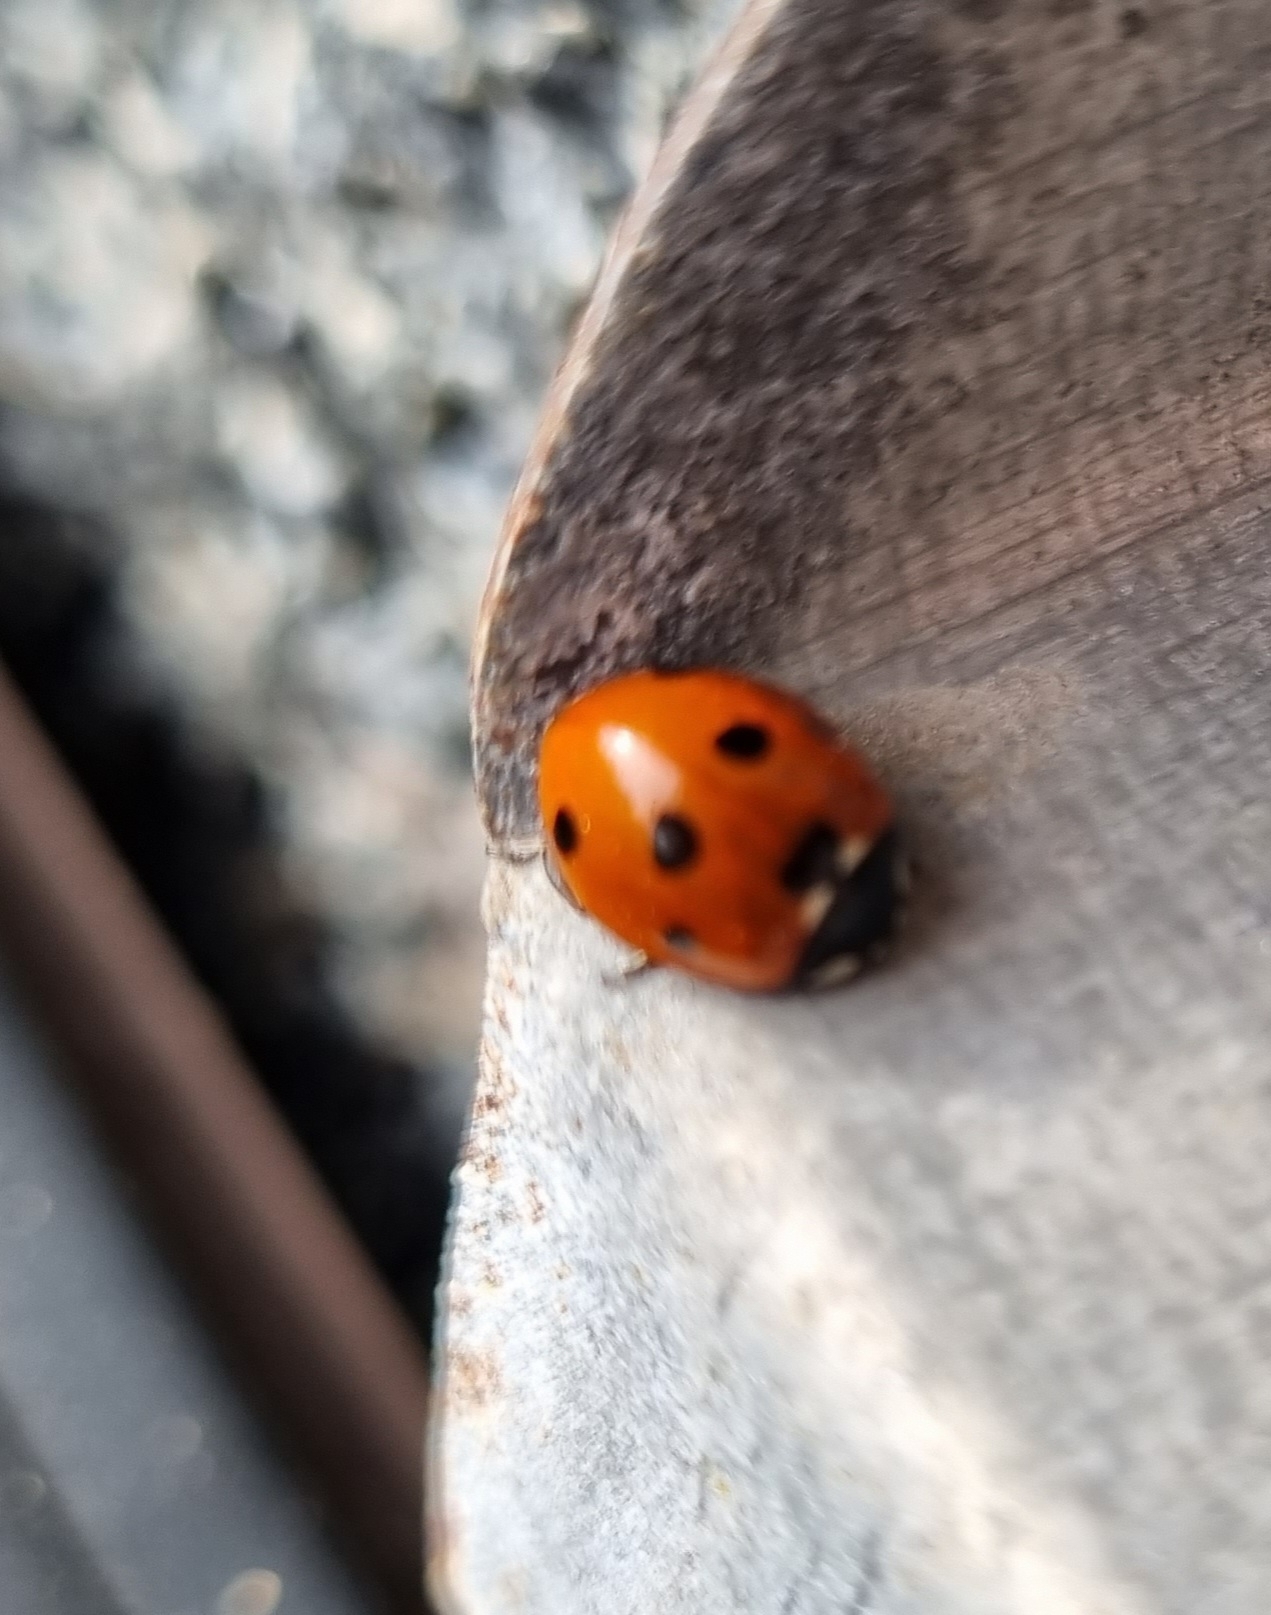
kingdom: Animalia
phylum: Arthropoda
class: Insecta
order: Coleoptera
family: Coccinellidae
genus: Coccinella
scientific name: Coccinella septempunctata
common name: Sevenspotted lady beetle
